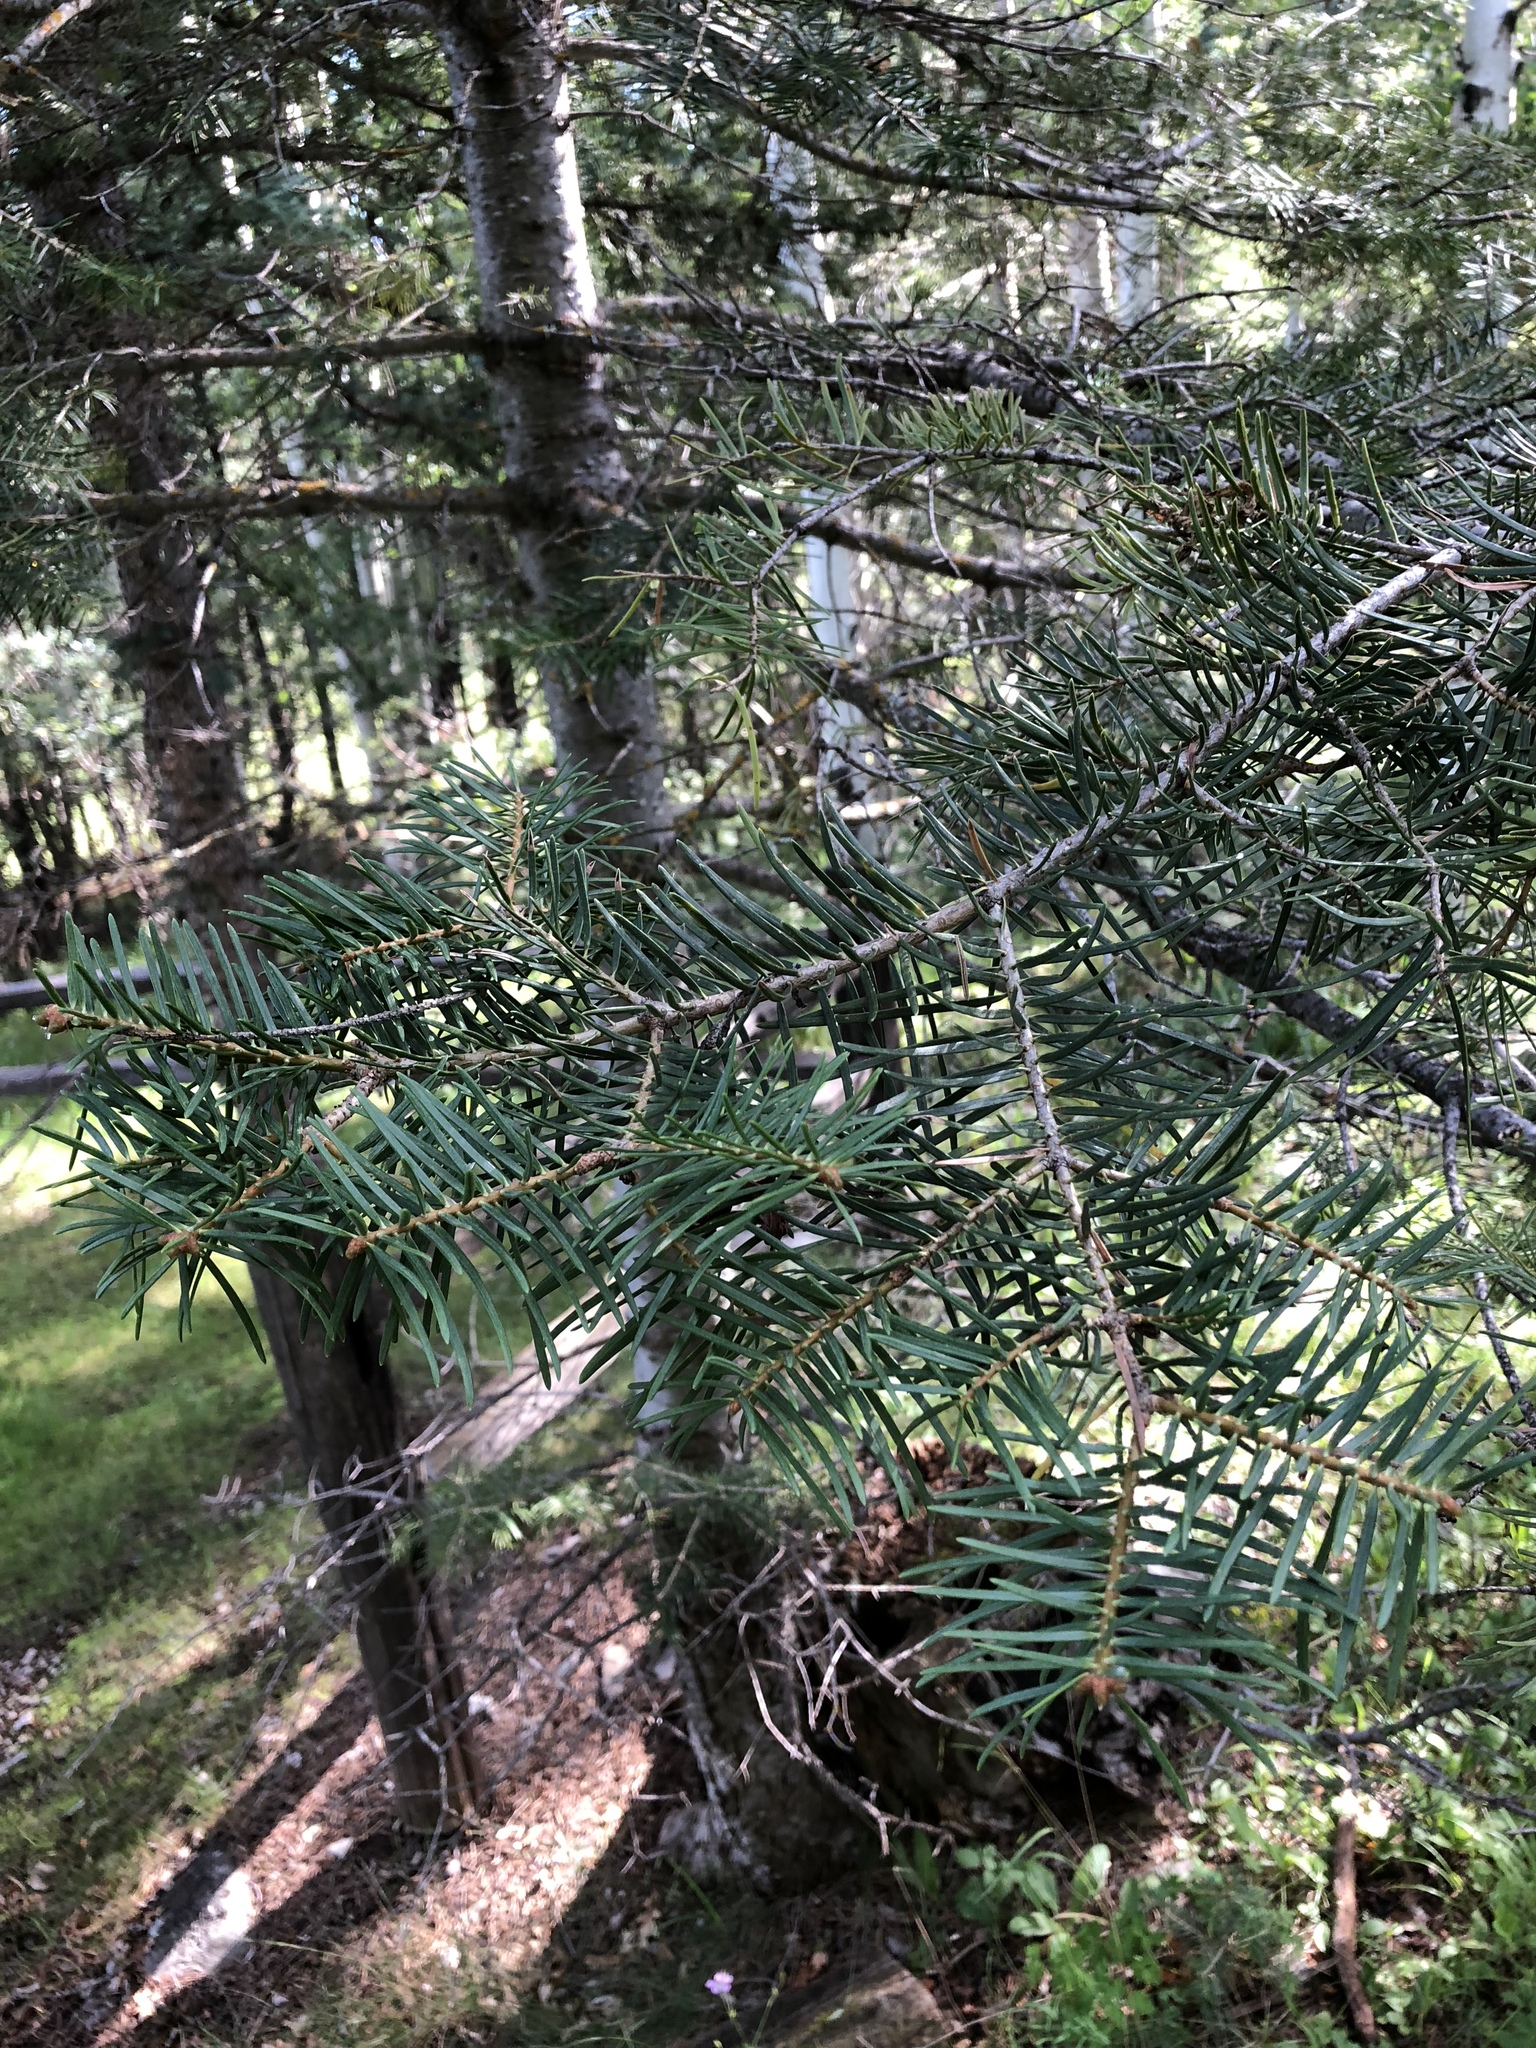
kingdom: Plantae
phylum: Tracheophyta
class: Pinopsida
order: Pinales
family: Pinaceae
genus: Abies
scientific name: Abies concolor
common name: Colorado fir
